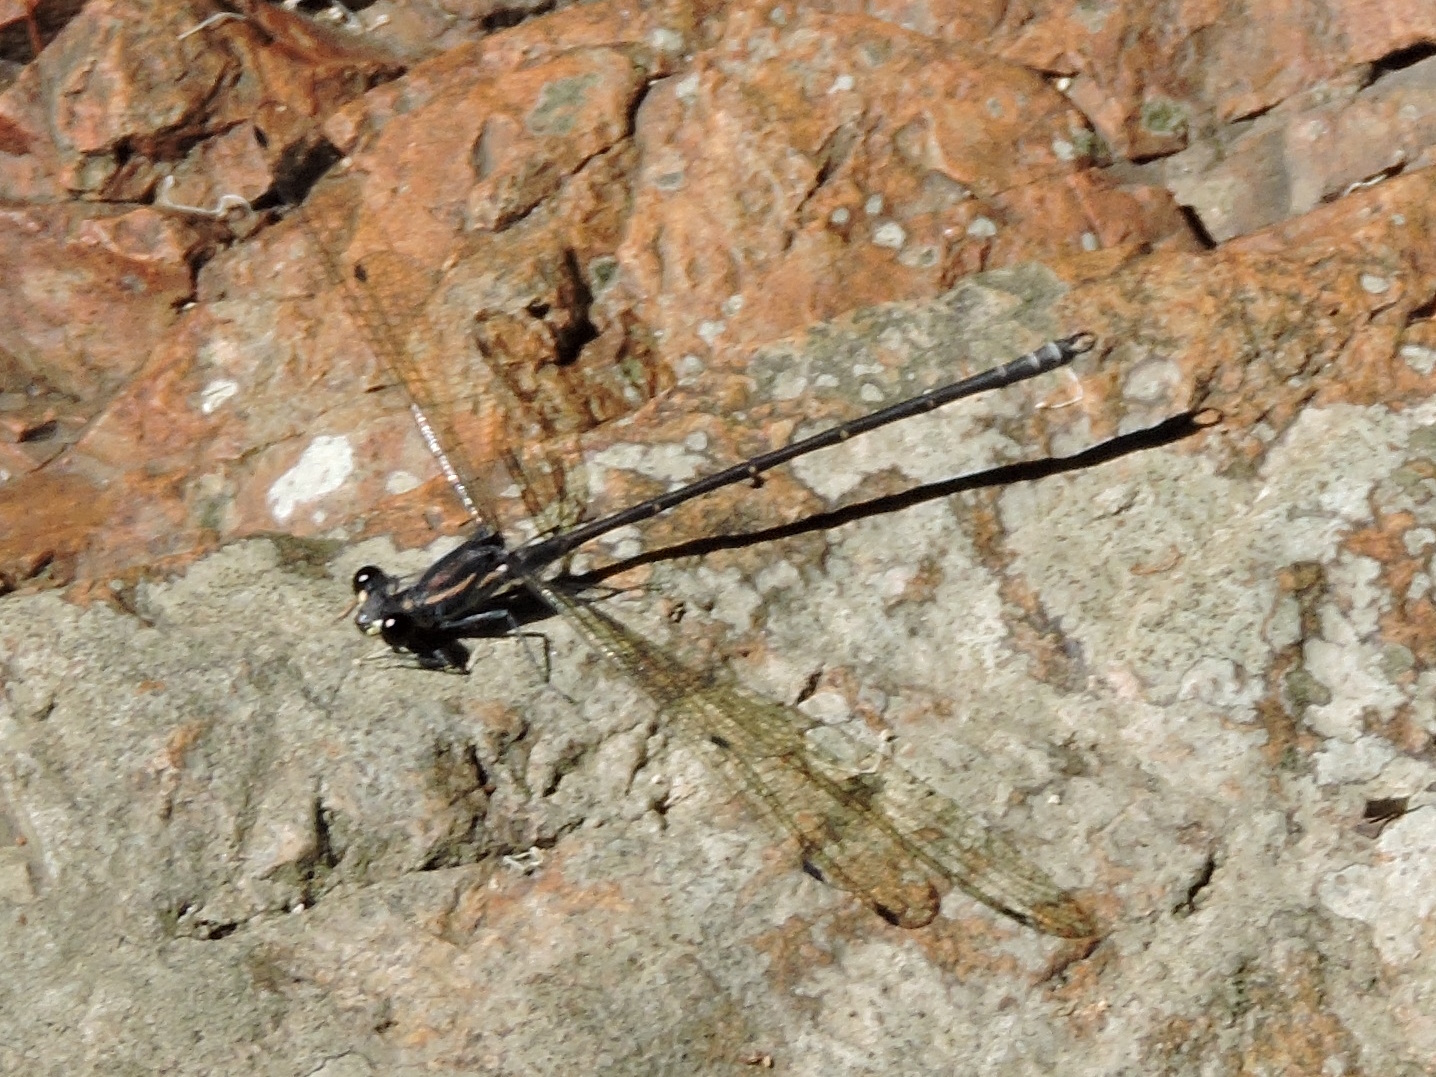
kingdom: Animalia
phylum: Arthropoda
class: Insecta
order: Odonata
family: Argiolestidae
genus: Austroargiolestes
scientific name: Austroargiolestes icteromelas
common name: Common flatwing
